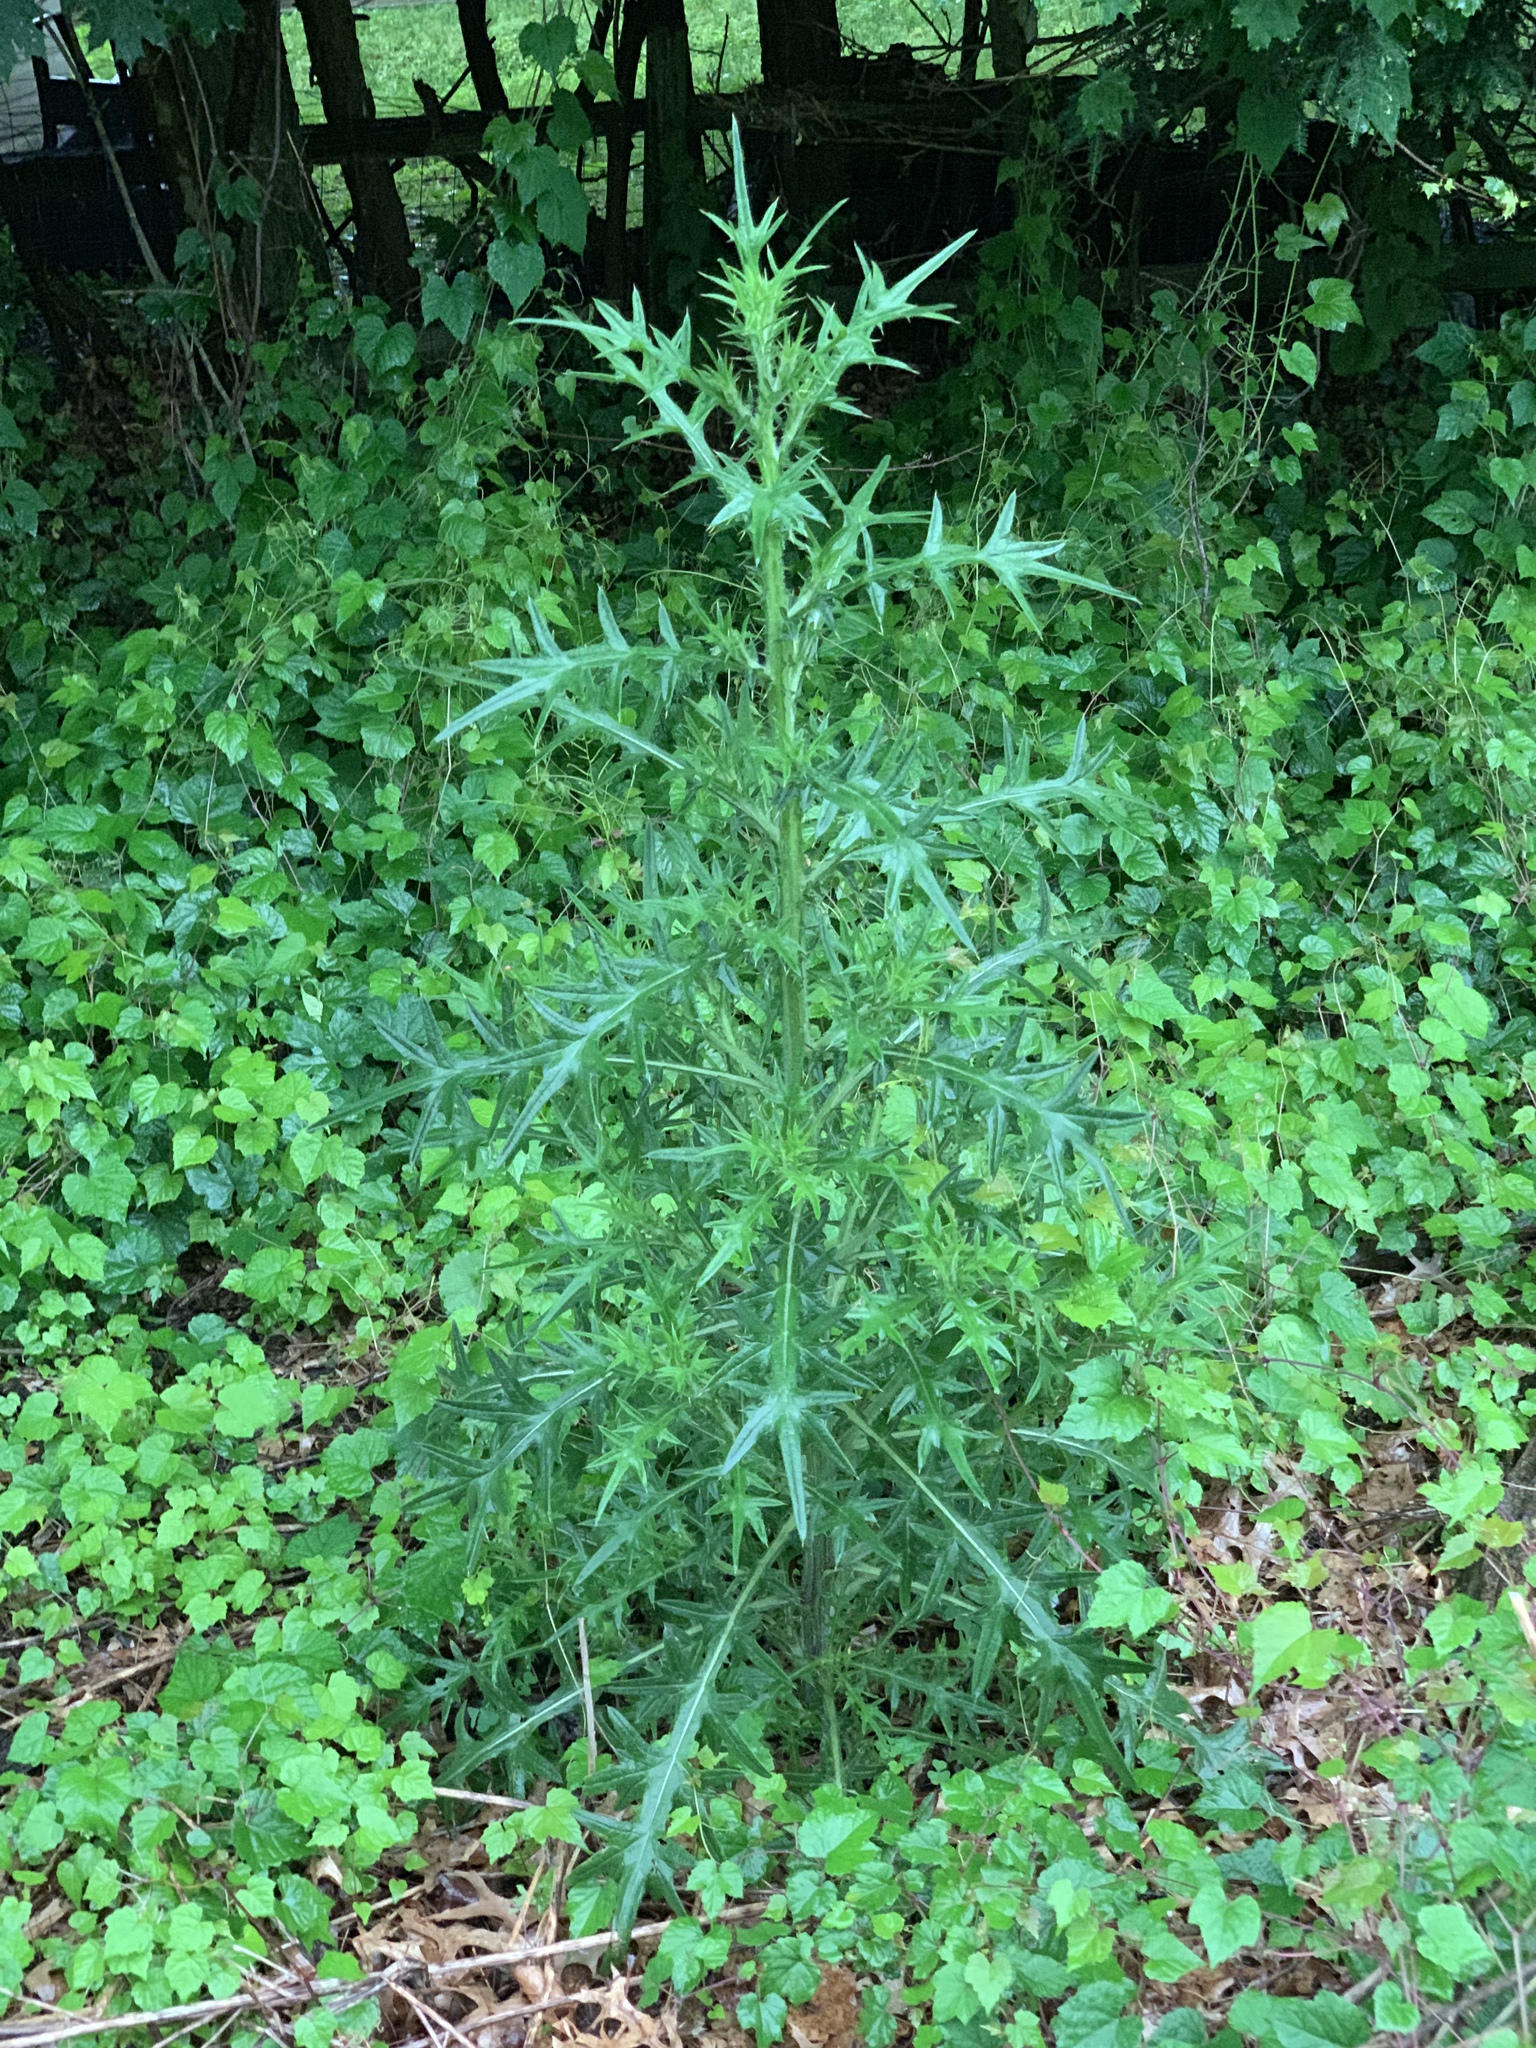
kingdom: Plantae
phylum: Tracheophyta
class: Magnoliopsida
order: Asterales
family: Asteraceae
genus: Cirsium
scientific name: Cirsium vulgare
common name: Bull thistle
